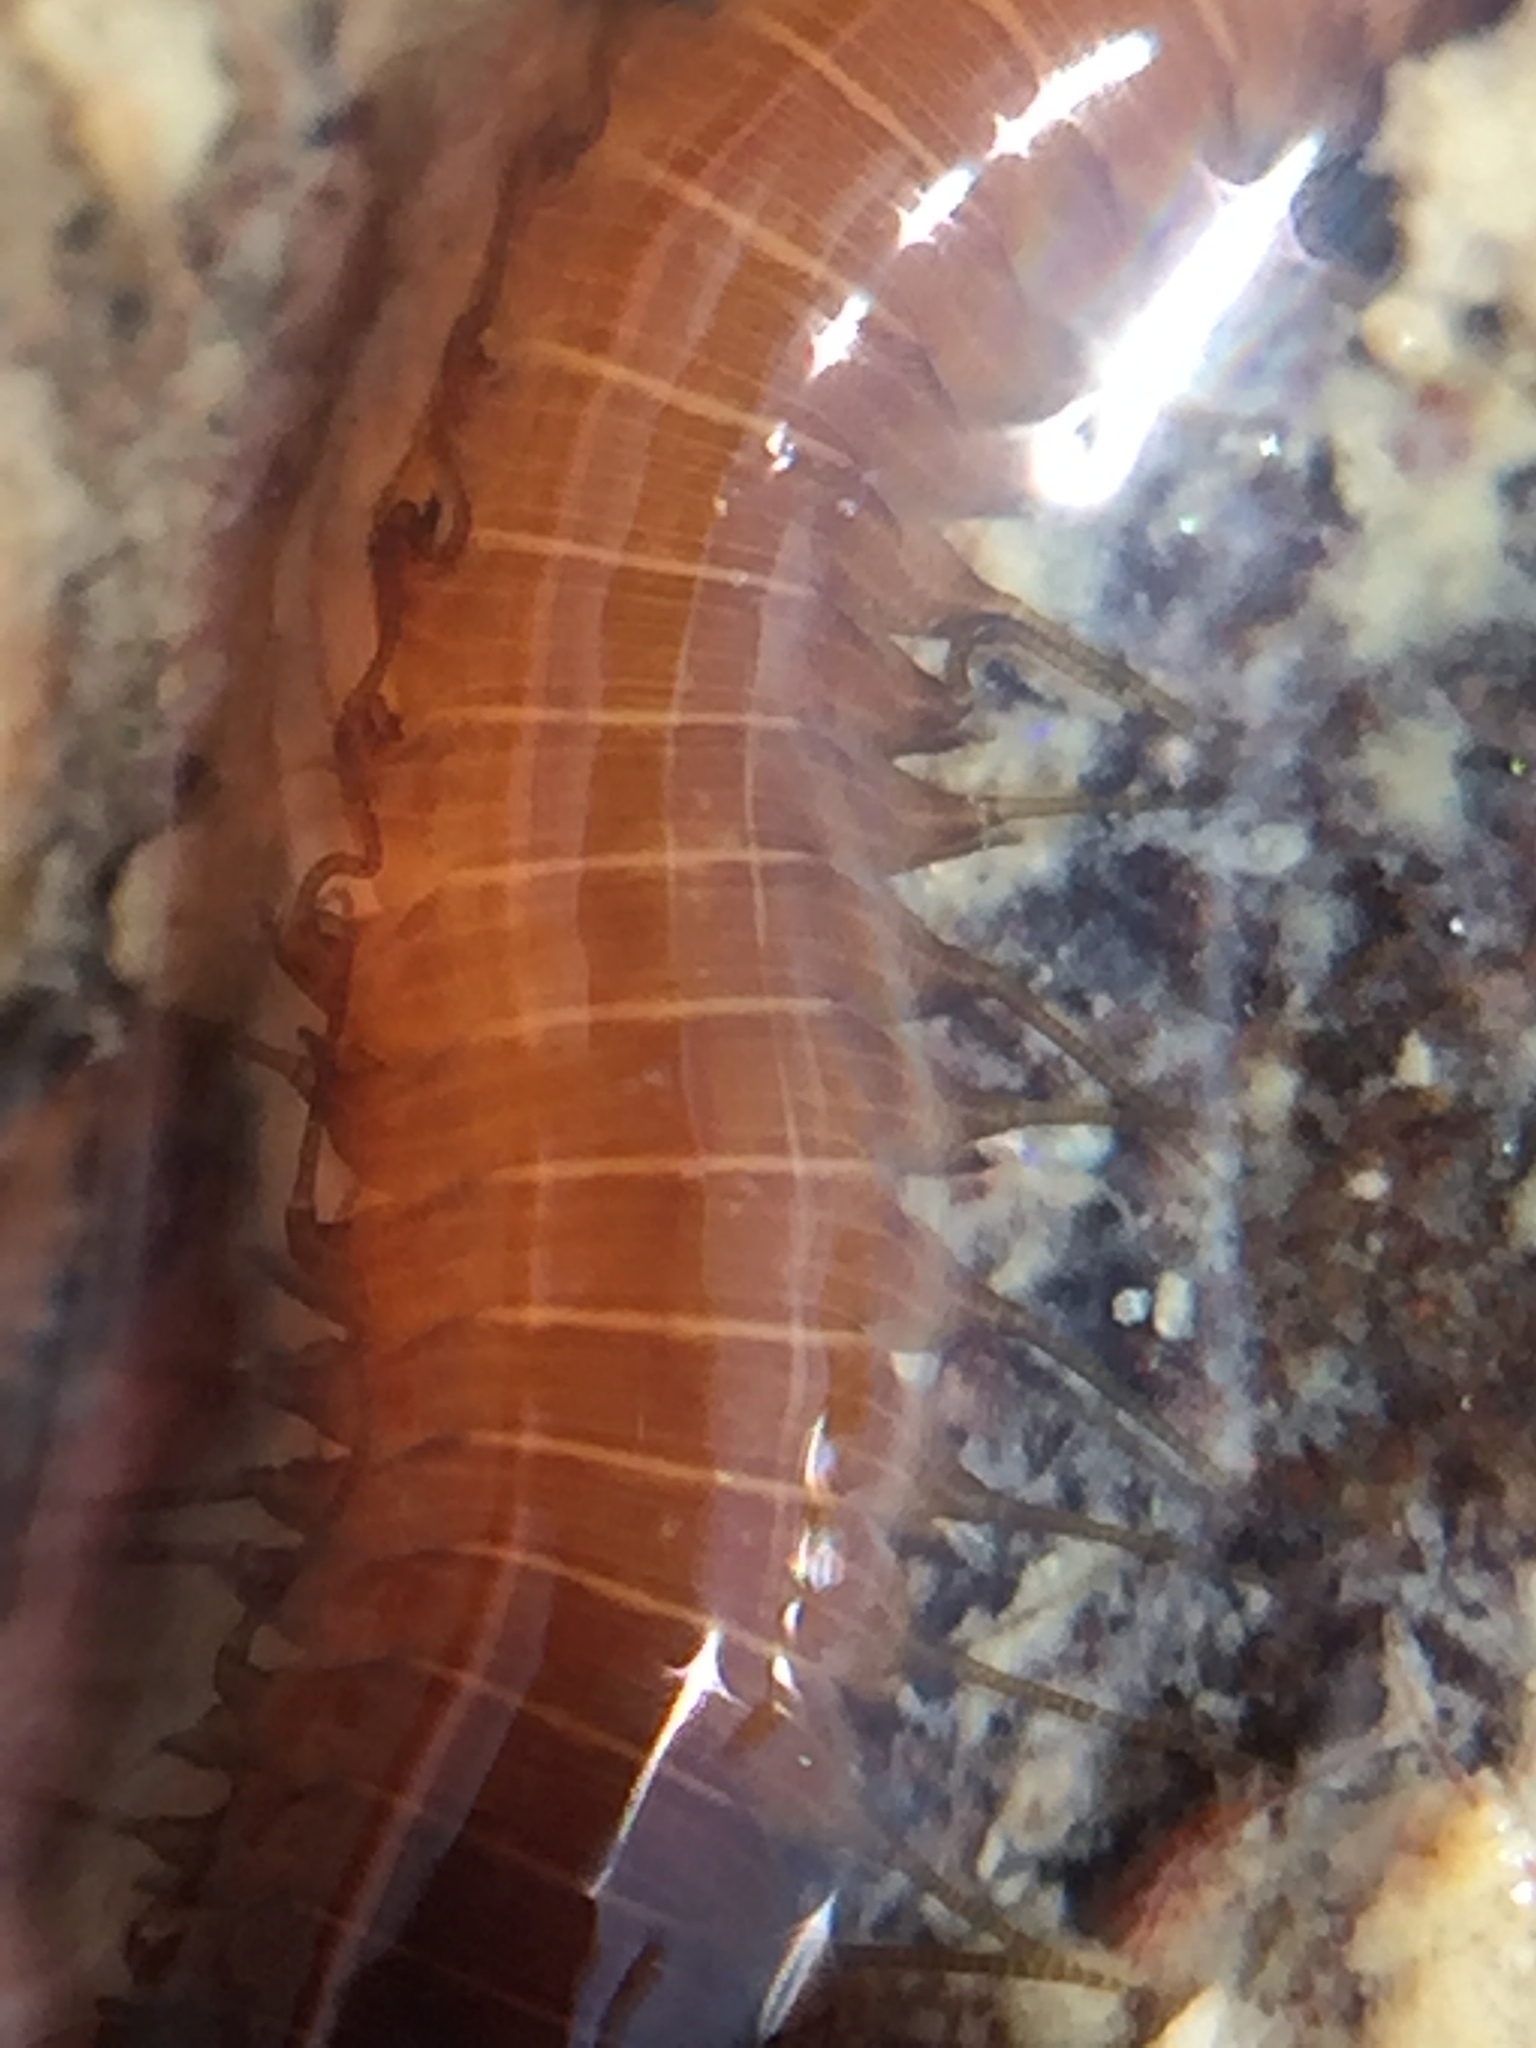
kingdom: Animalia
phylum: Annelida
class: Polychaeta
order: Phyllodocida
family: Hesionidae
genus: Oxydromus
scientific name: Oxydromus angustifrons
